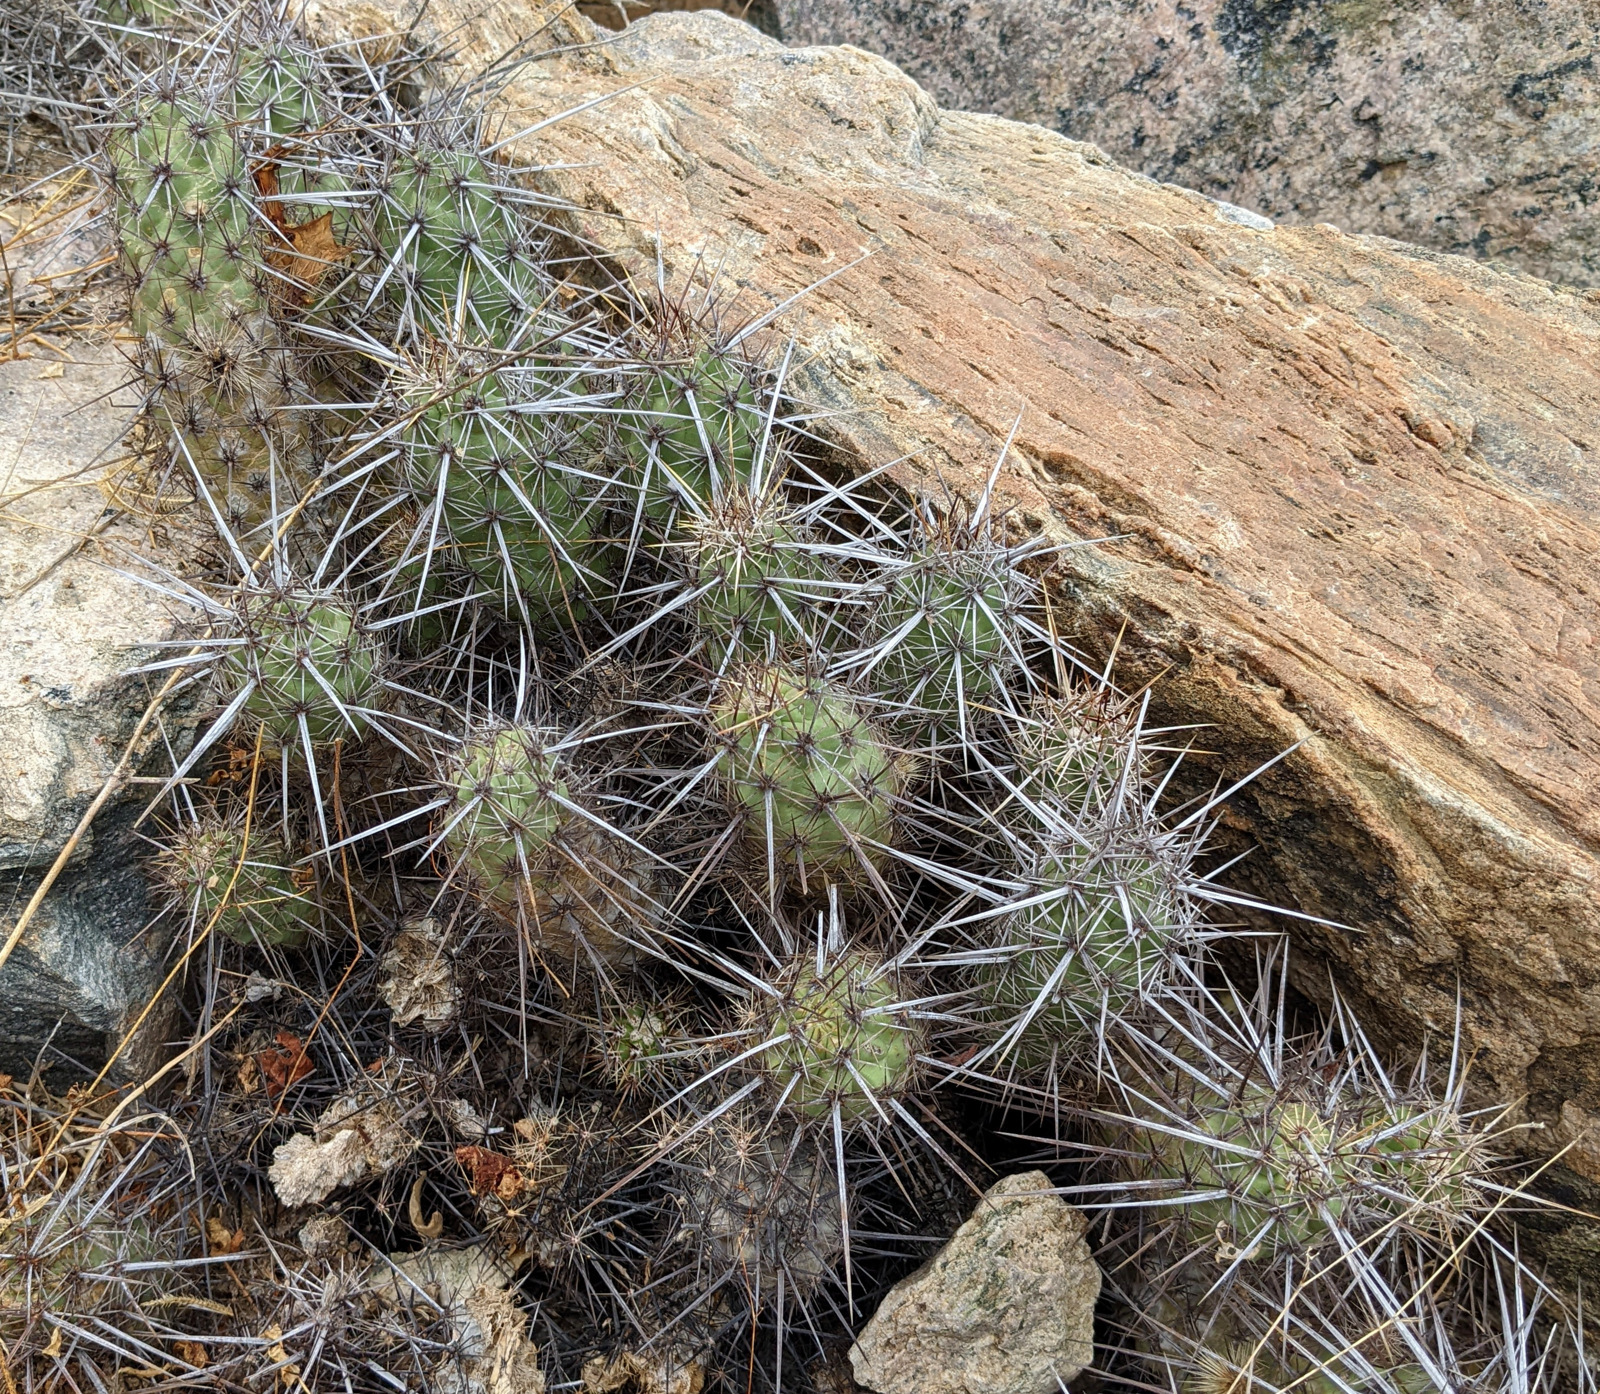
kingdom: Plantae
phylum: Tracheophyta
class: Magnoliopsida
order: Caryophyllales
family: Cactaceae
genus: Echinocereus
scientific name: Echinocereus brandegeei
